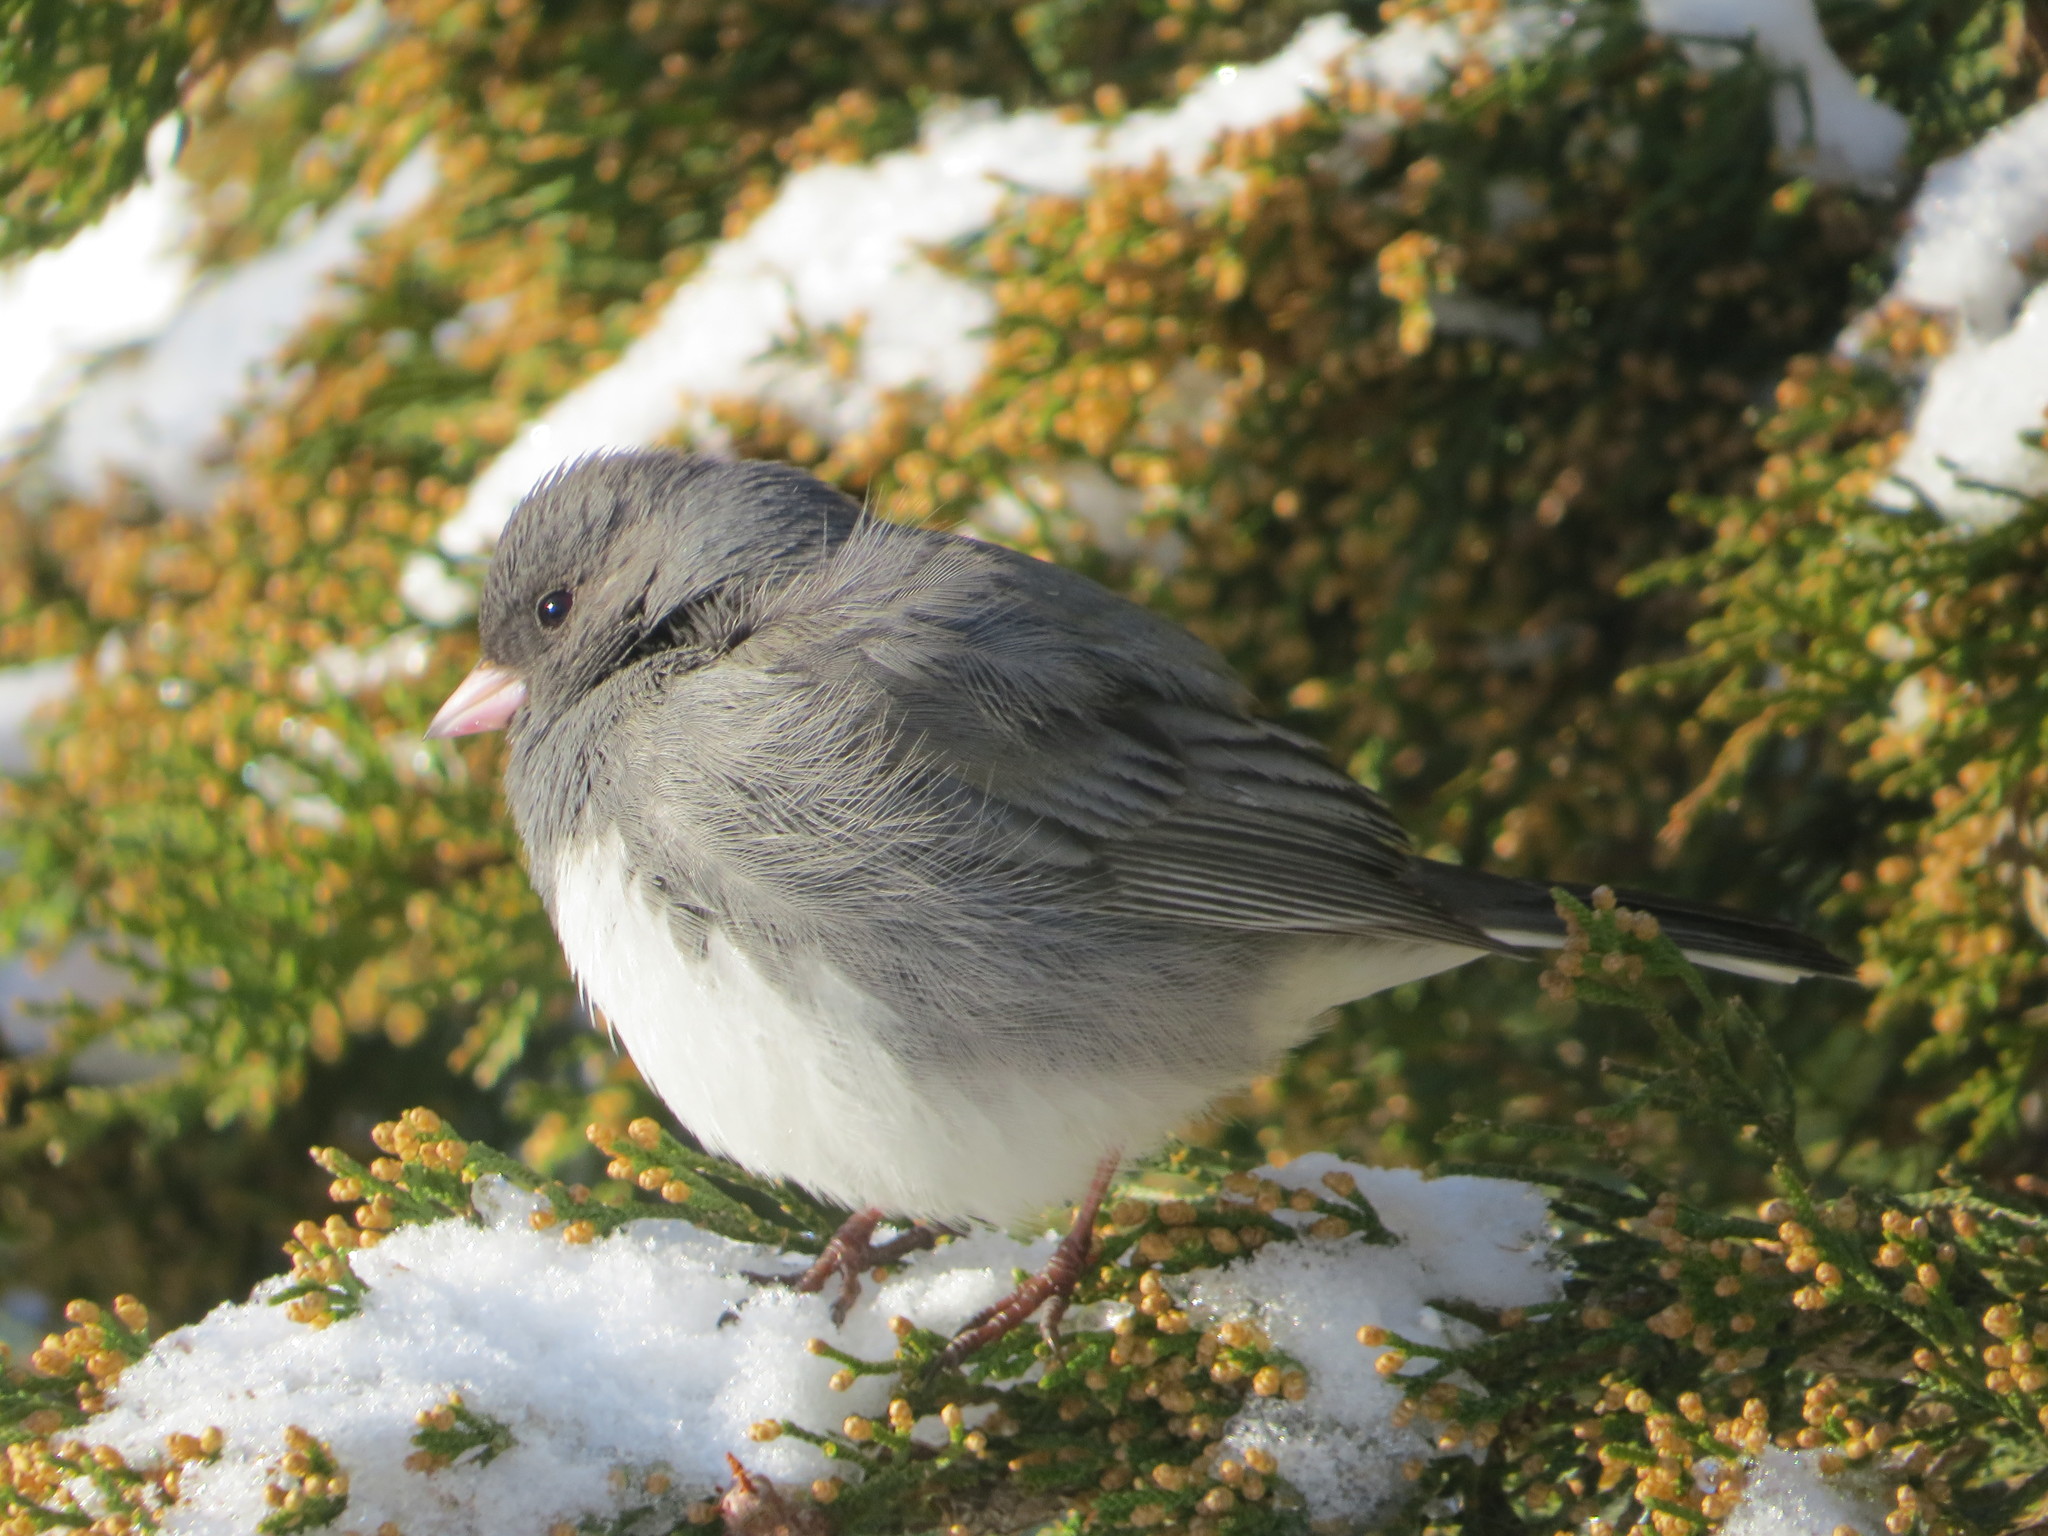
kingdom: Animalia
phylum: Chordata
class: Aves
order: Passeriformes
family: Passerellidae
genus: Junco
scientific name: Junco hyemalis
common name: Dark-eyed junco
